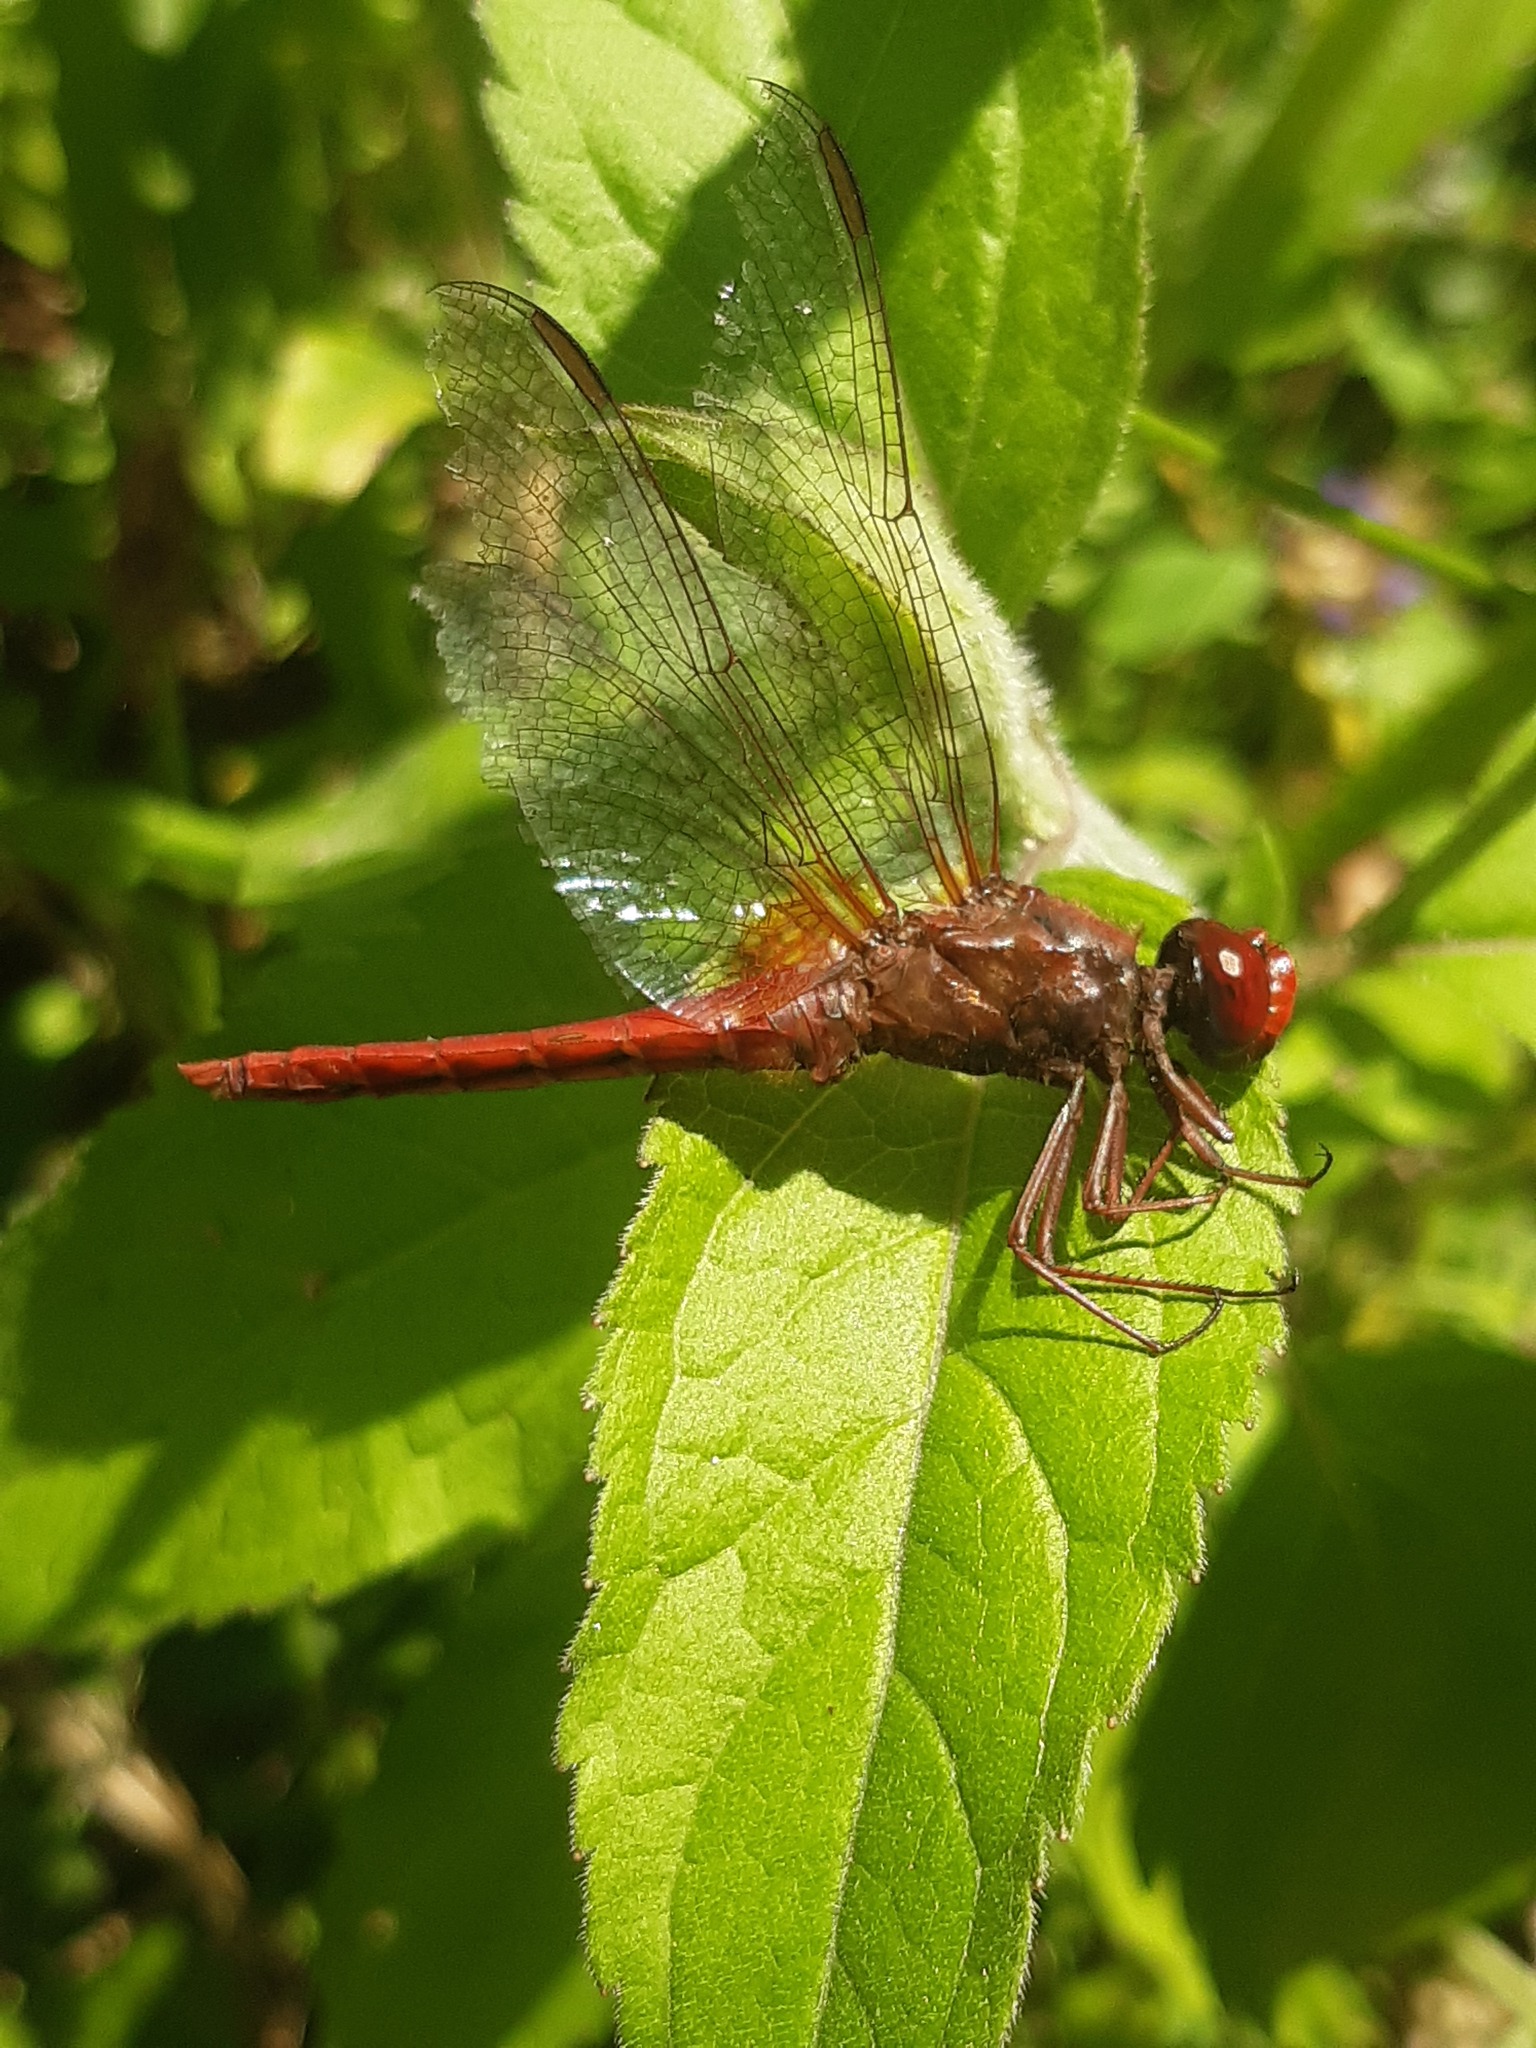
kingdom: Animalia
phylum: Arthropoda
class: Insecta
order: Odonata
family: Libellulidae
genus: Crocothemis
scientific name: Crocothemis erythraea
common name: Scarlet dragonfly
